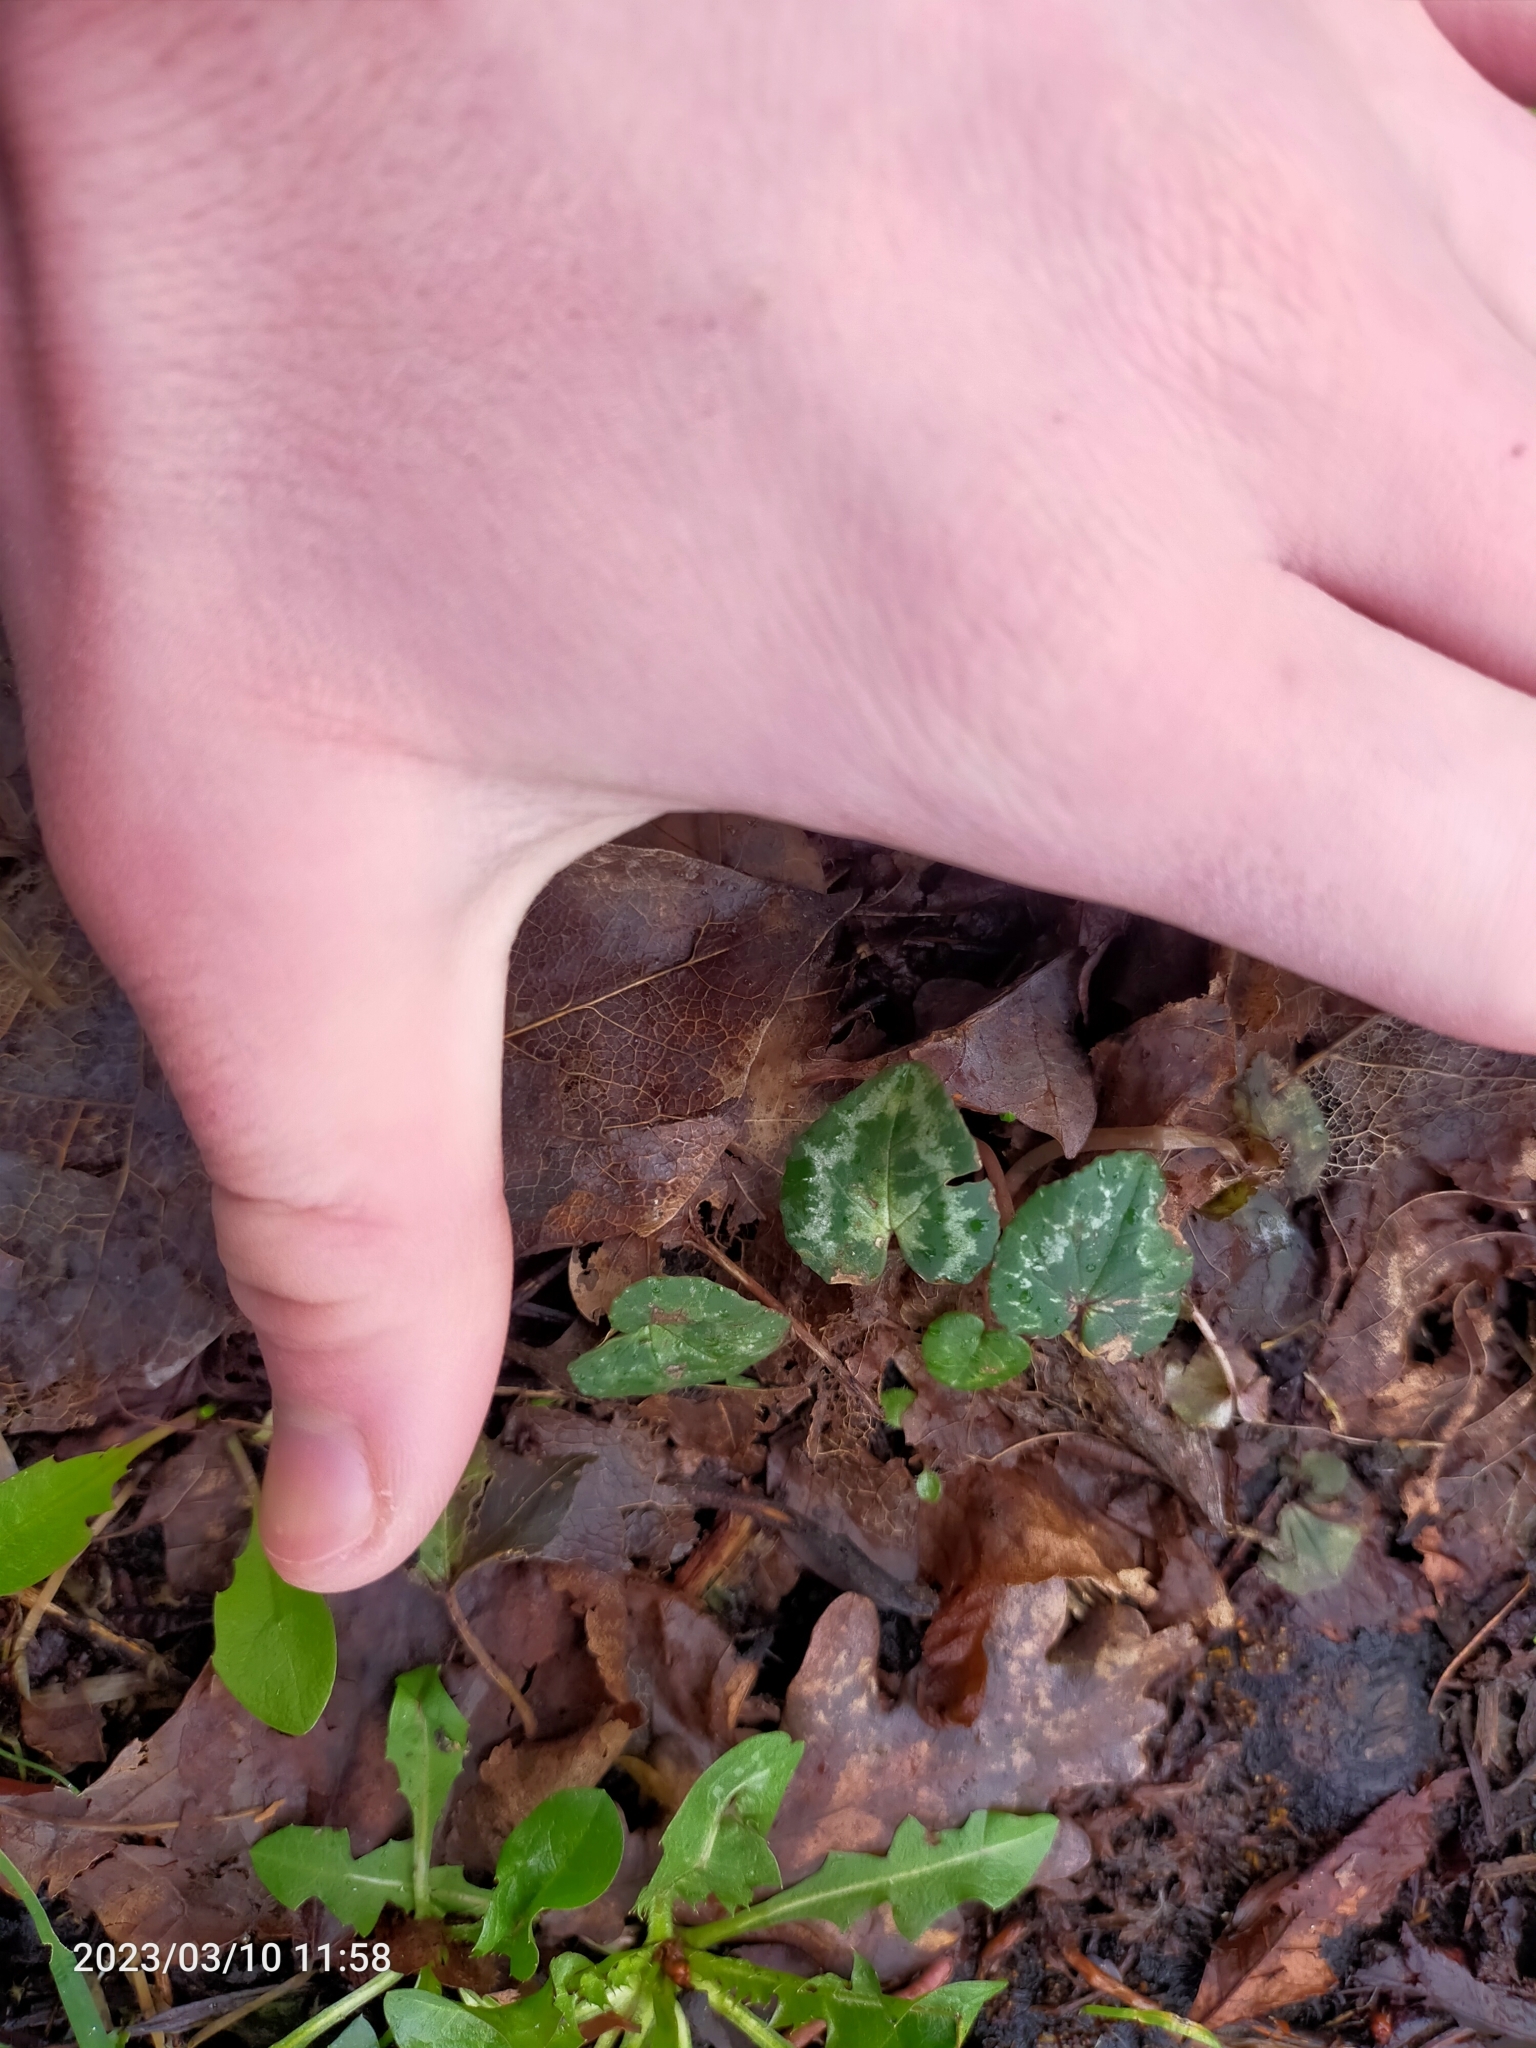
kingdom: Plantae
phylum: Tracheophyta
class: Magnoliopsida
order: Ericales
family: Primulaceae
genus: Cyclamen
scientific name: Cyclamen hederifolium
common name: Sowbread
